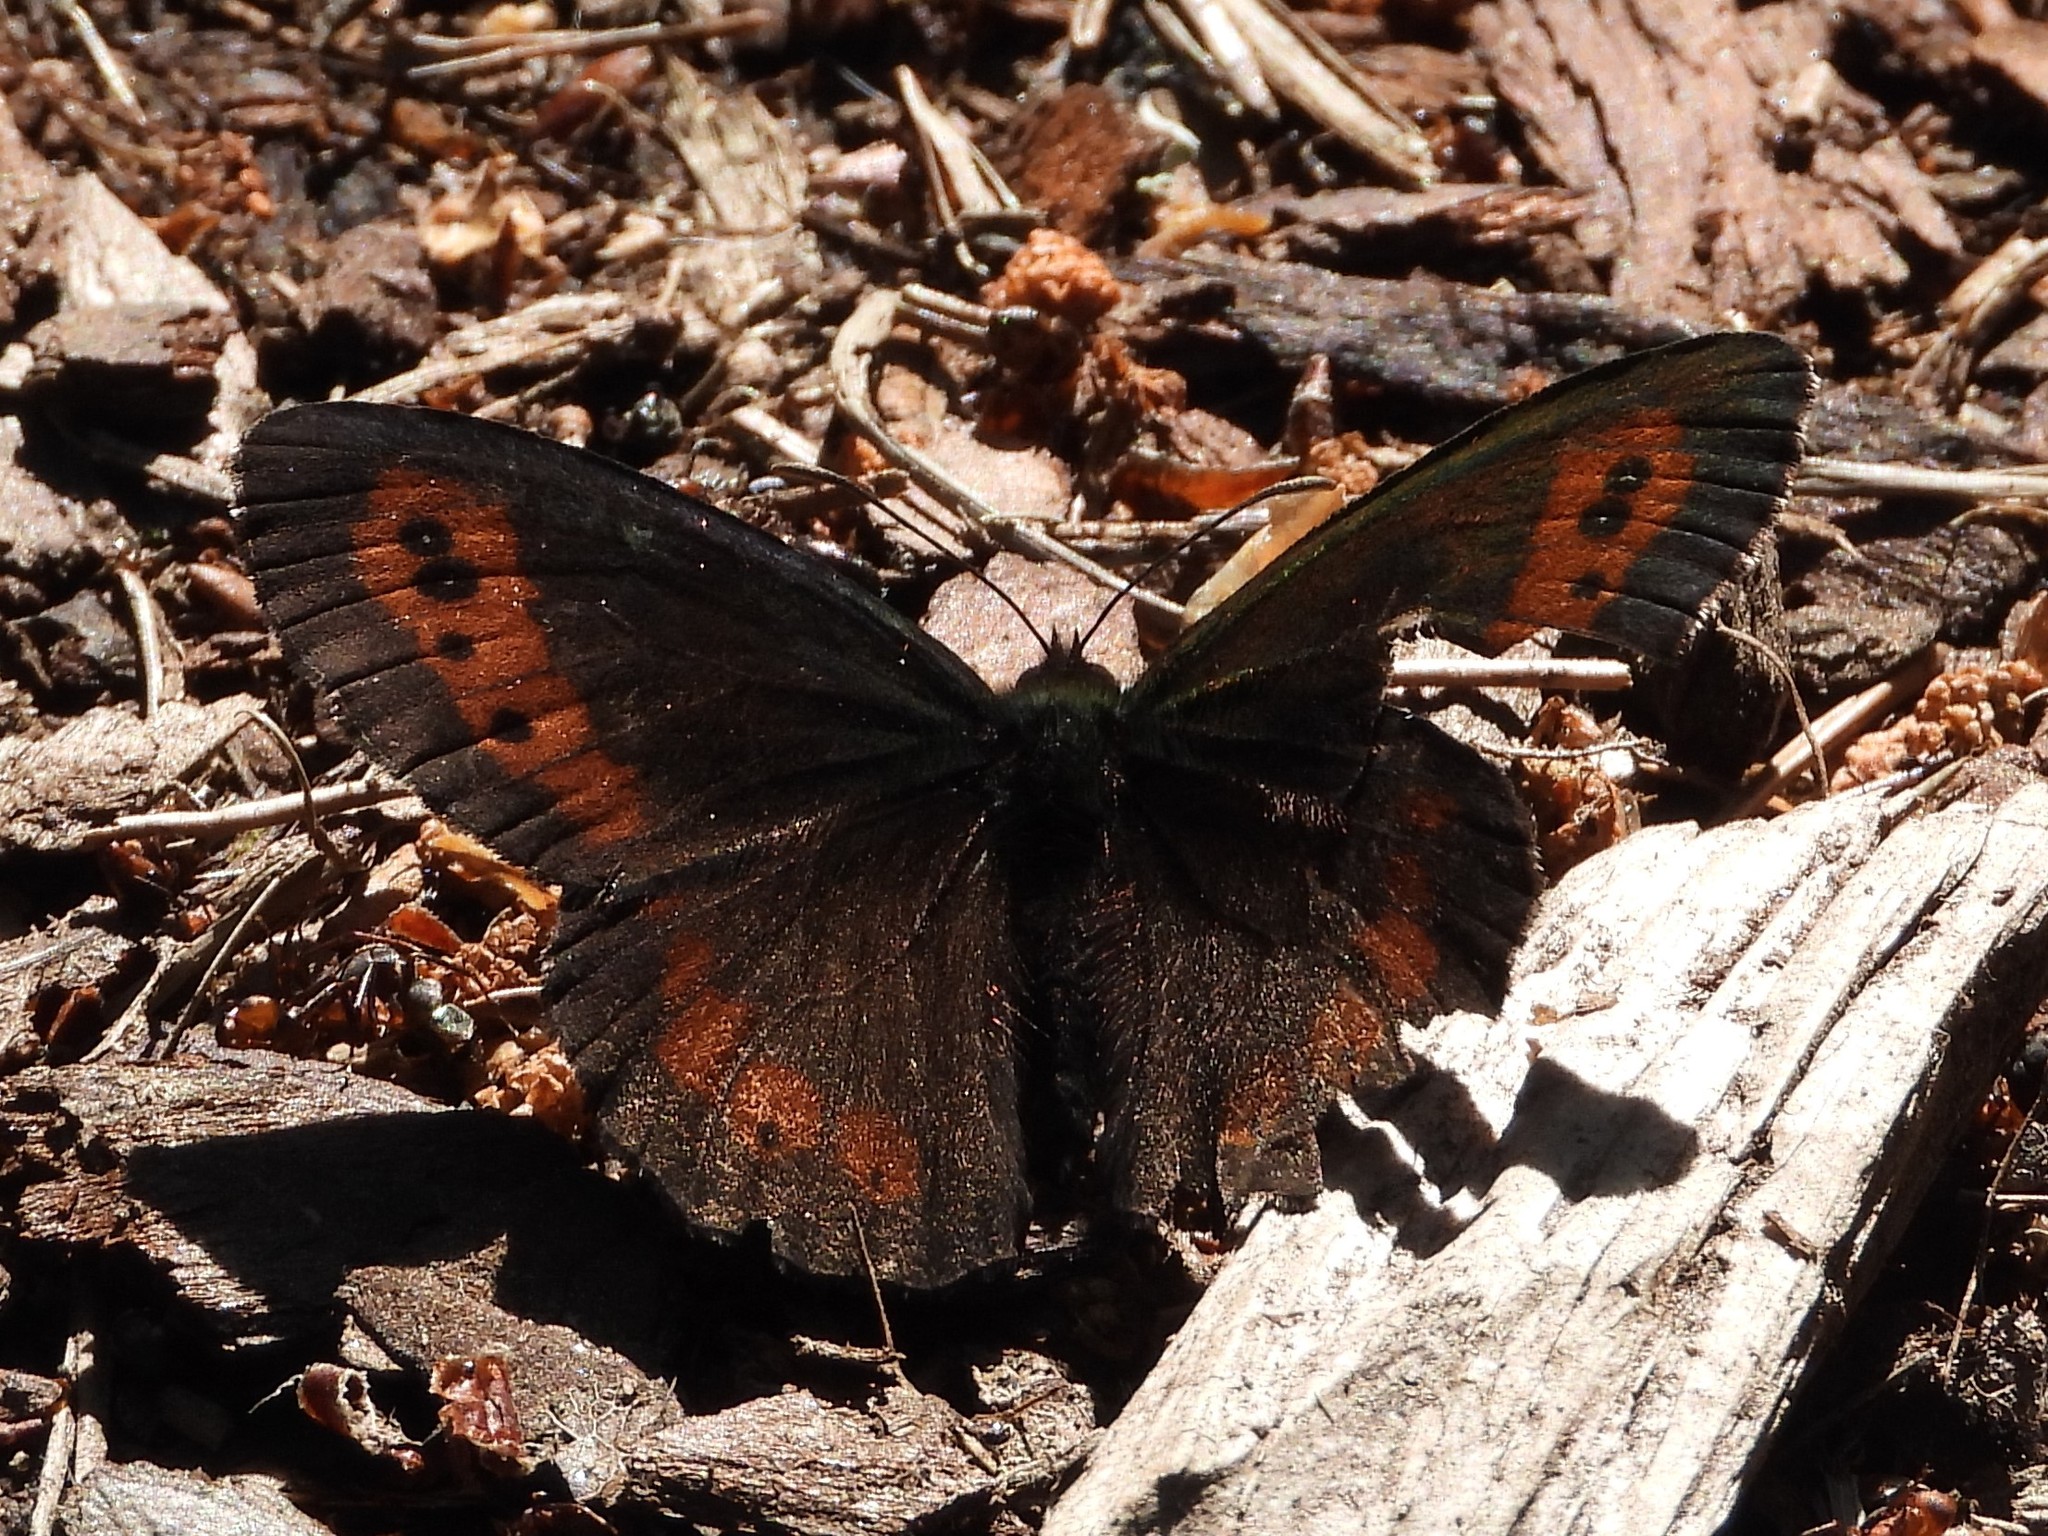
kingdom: Animalia
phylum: Arthropoda
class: Insecta
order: Lepidoptera
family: Nymphalidae
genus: Erebia
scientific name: Erebia ligea
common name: Arran brown
